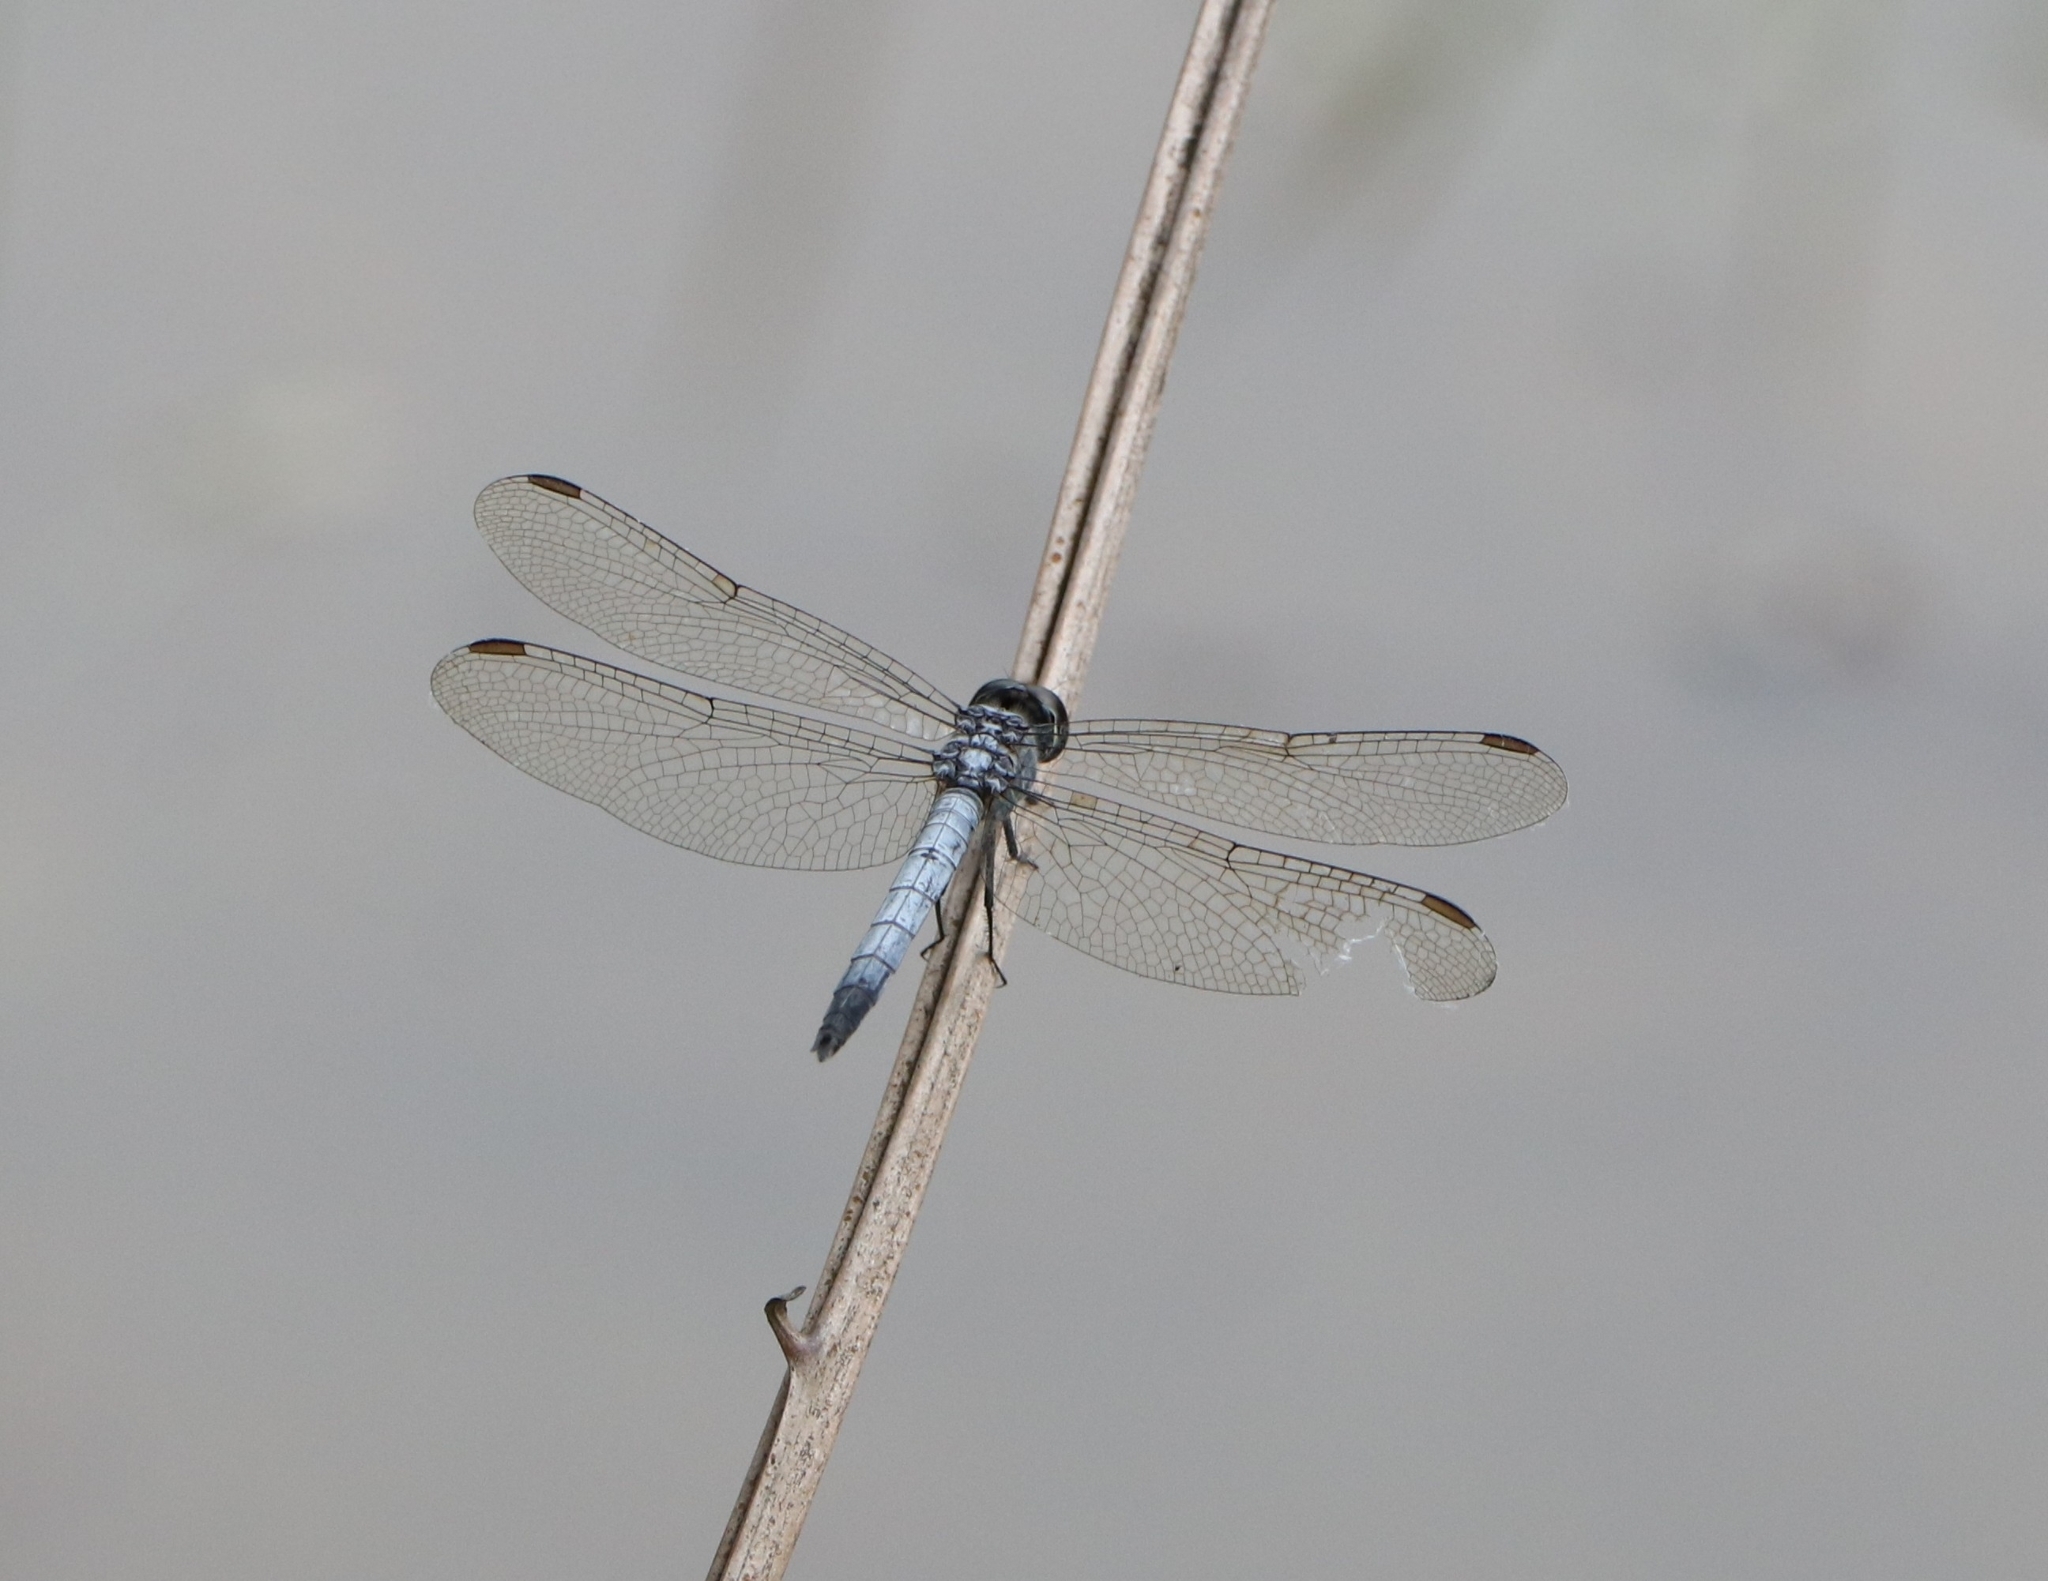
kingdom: Animalia
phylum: Arthropoda
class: Insecta
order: Odonata
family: Libellulidae
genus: Brachydiplax
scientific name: Brachydiplax sobrina
